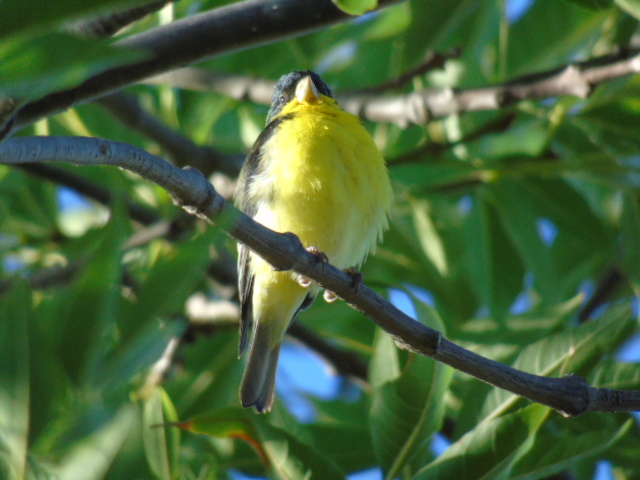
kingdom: Animalia
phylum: Chordata
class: Aves
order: Passeriformes
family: Fringillidae
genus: Spinus
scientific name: Spinus psaltria
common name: Lesser goldfinch
